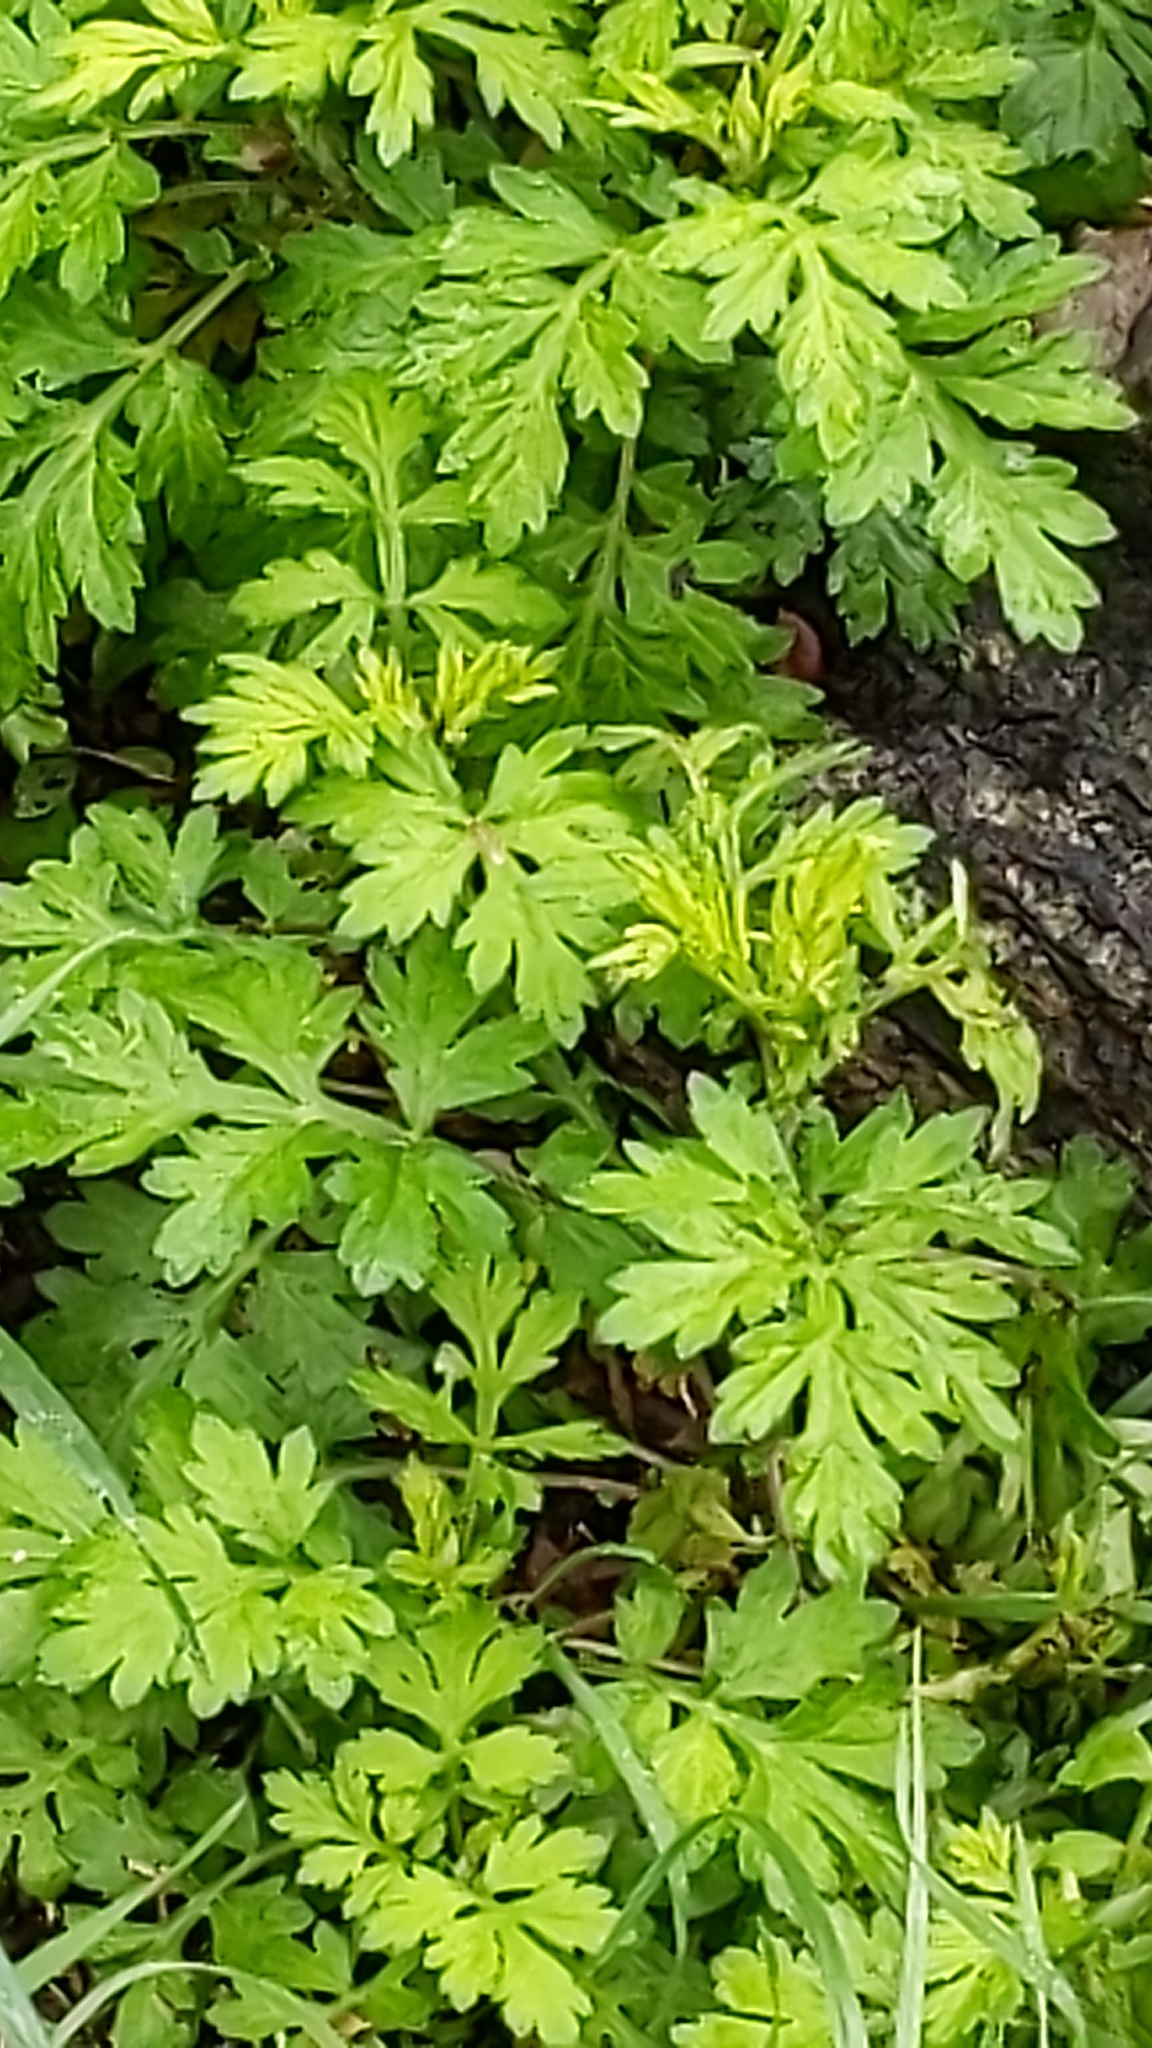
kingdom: Plantae
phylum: Tracheophyta
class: Magnoliopsida
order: Asterales
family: Asteraceae
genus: Artemisia
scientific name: Artemisia vulgaris
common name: Mugwort
